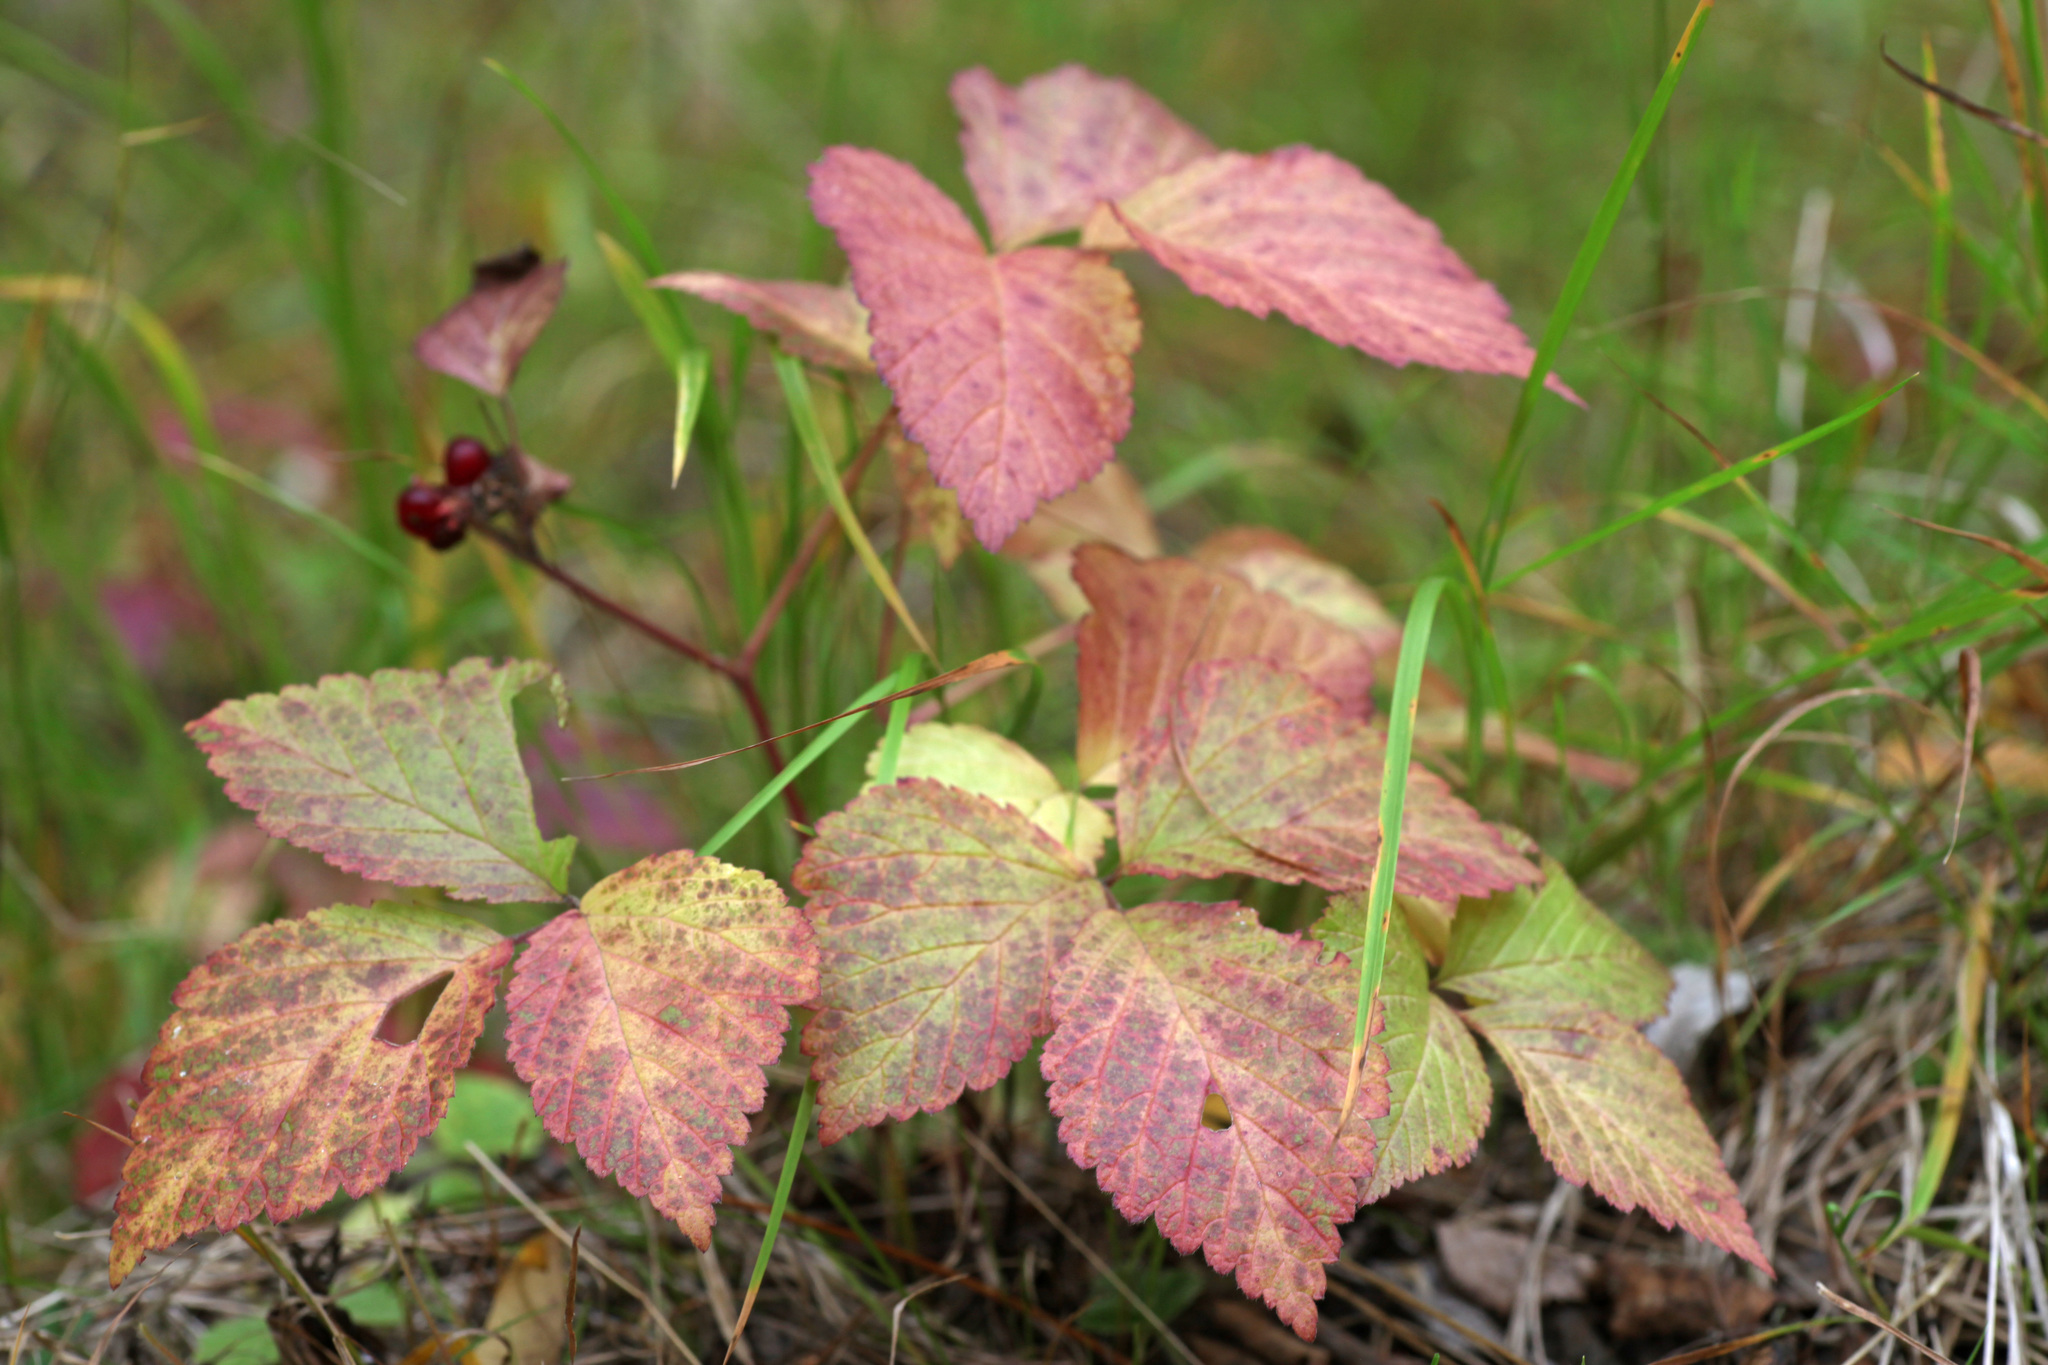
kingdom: Plantae
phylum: Tracheophyta
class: Magnoliopsida
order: Rosales
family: Rosaceae
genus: Rubus
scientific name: Rubus saxatilis
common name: Stone bramble
